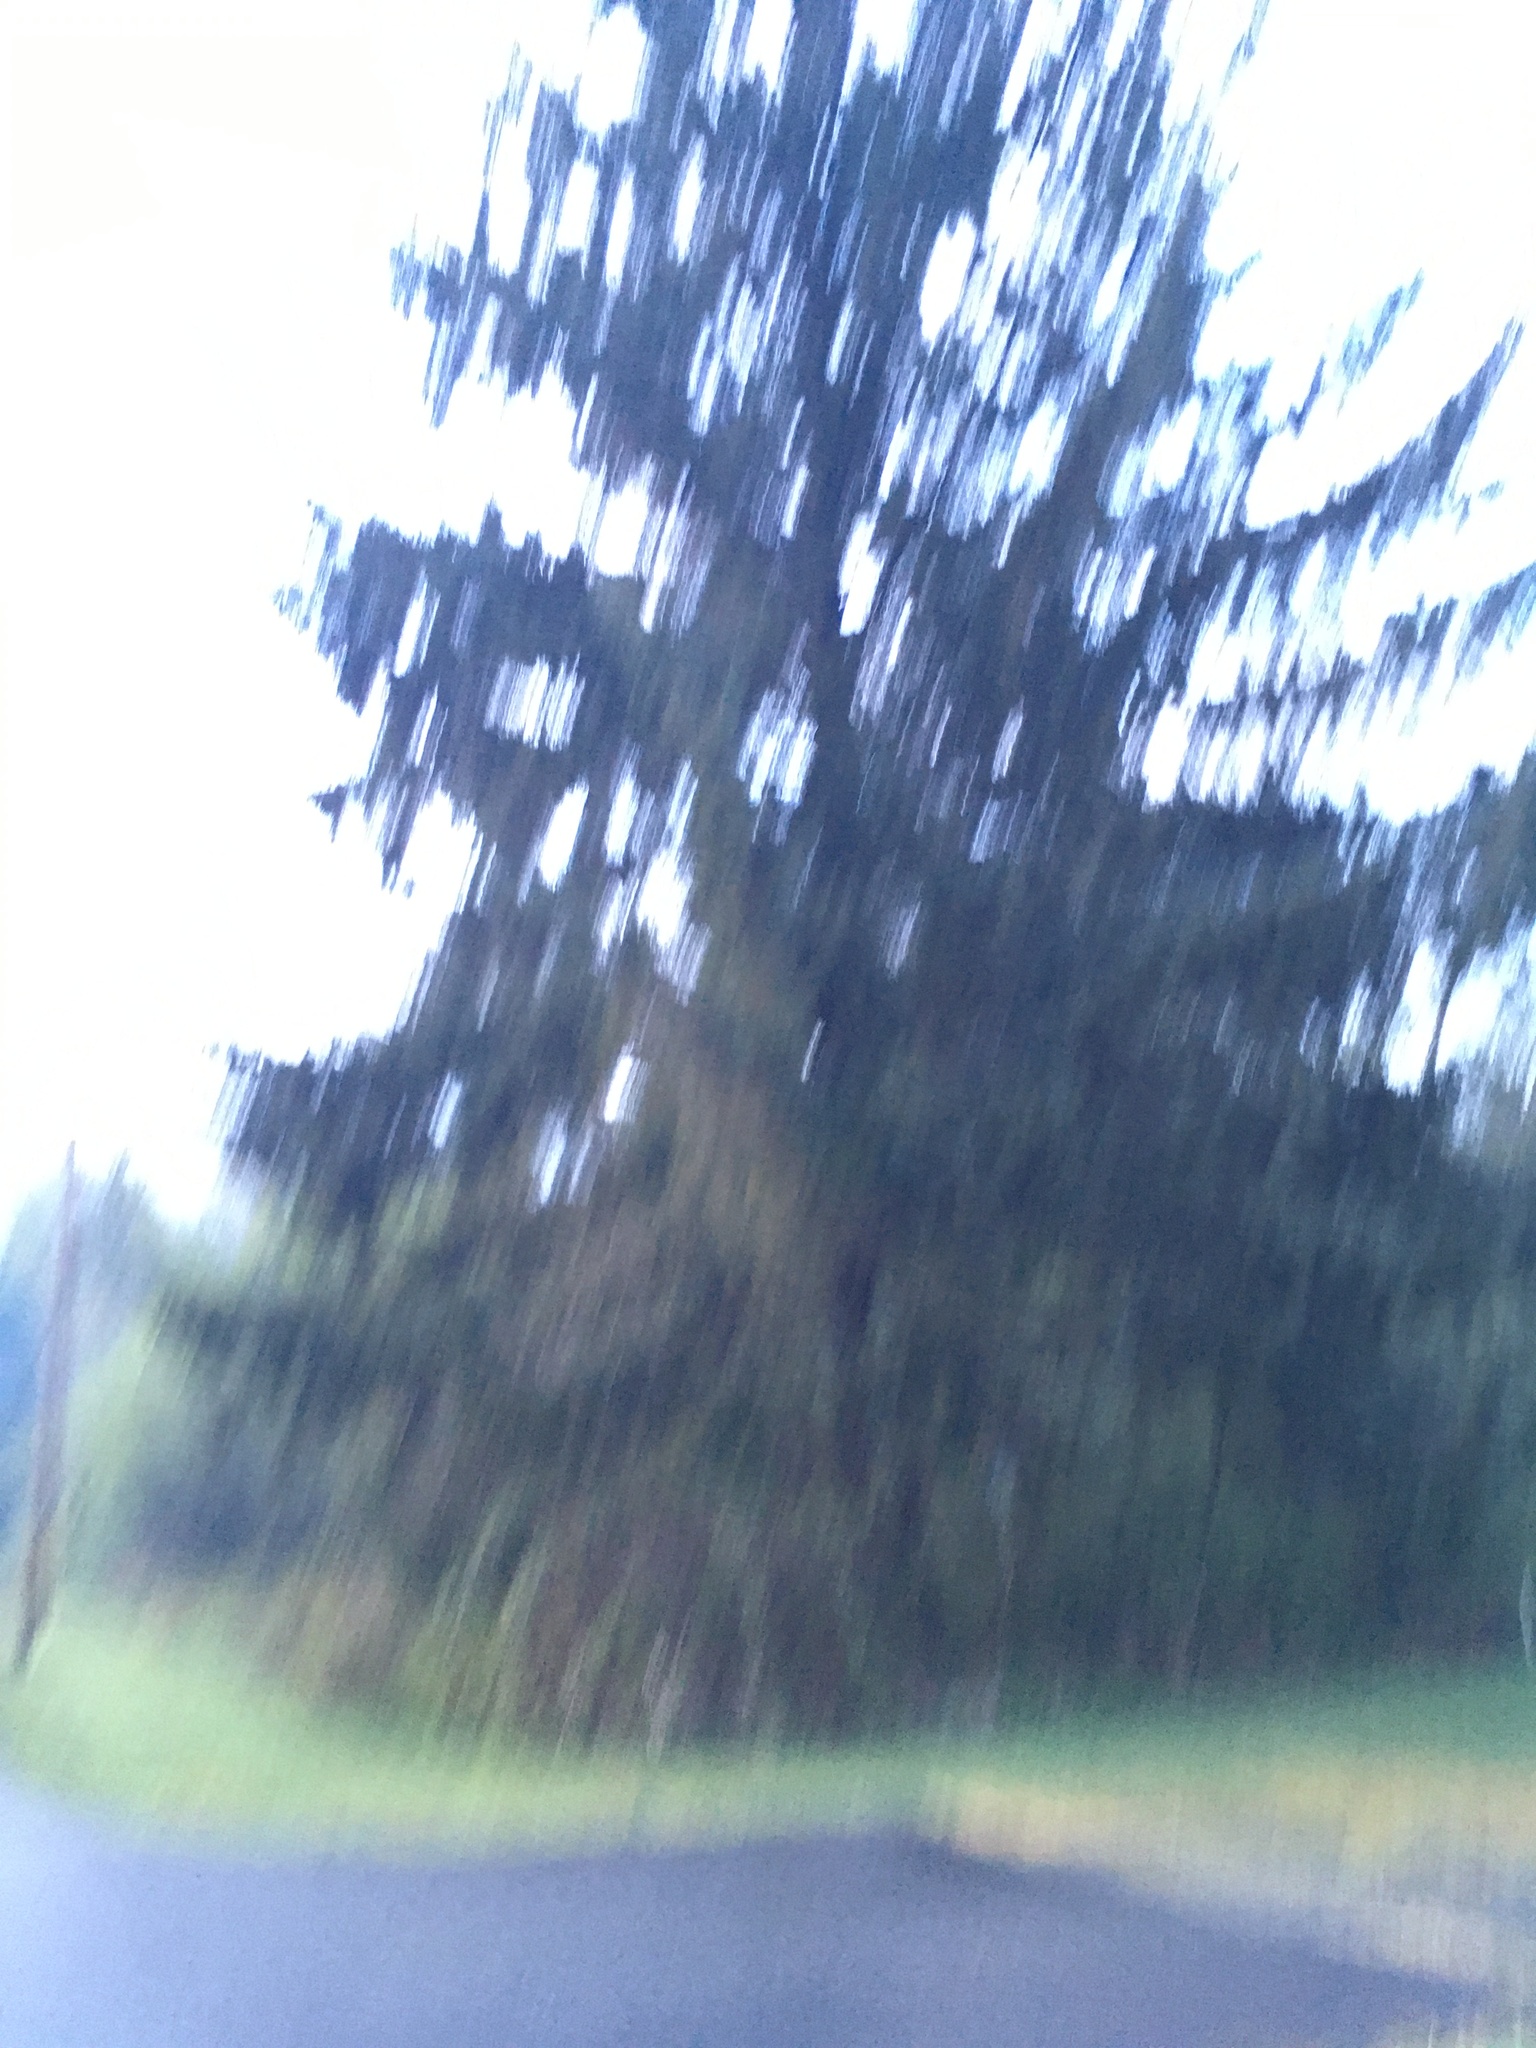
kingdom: Plantae
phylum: Tracheophyta
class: Pinopsida
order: Pinales
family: Pinaceae
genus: Picea
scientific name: Picea sitchensis
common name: Sitka spruce
